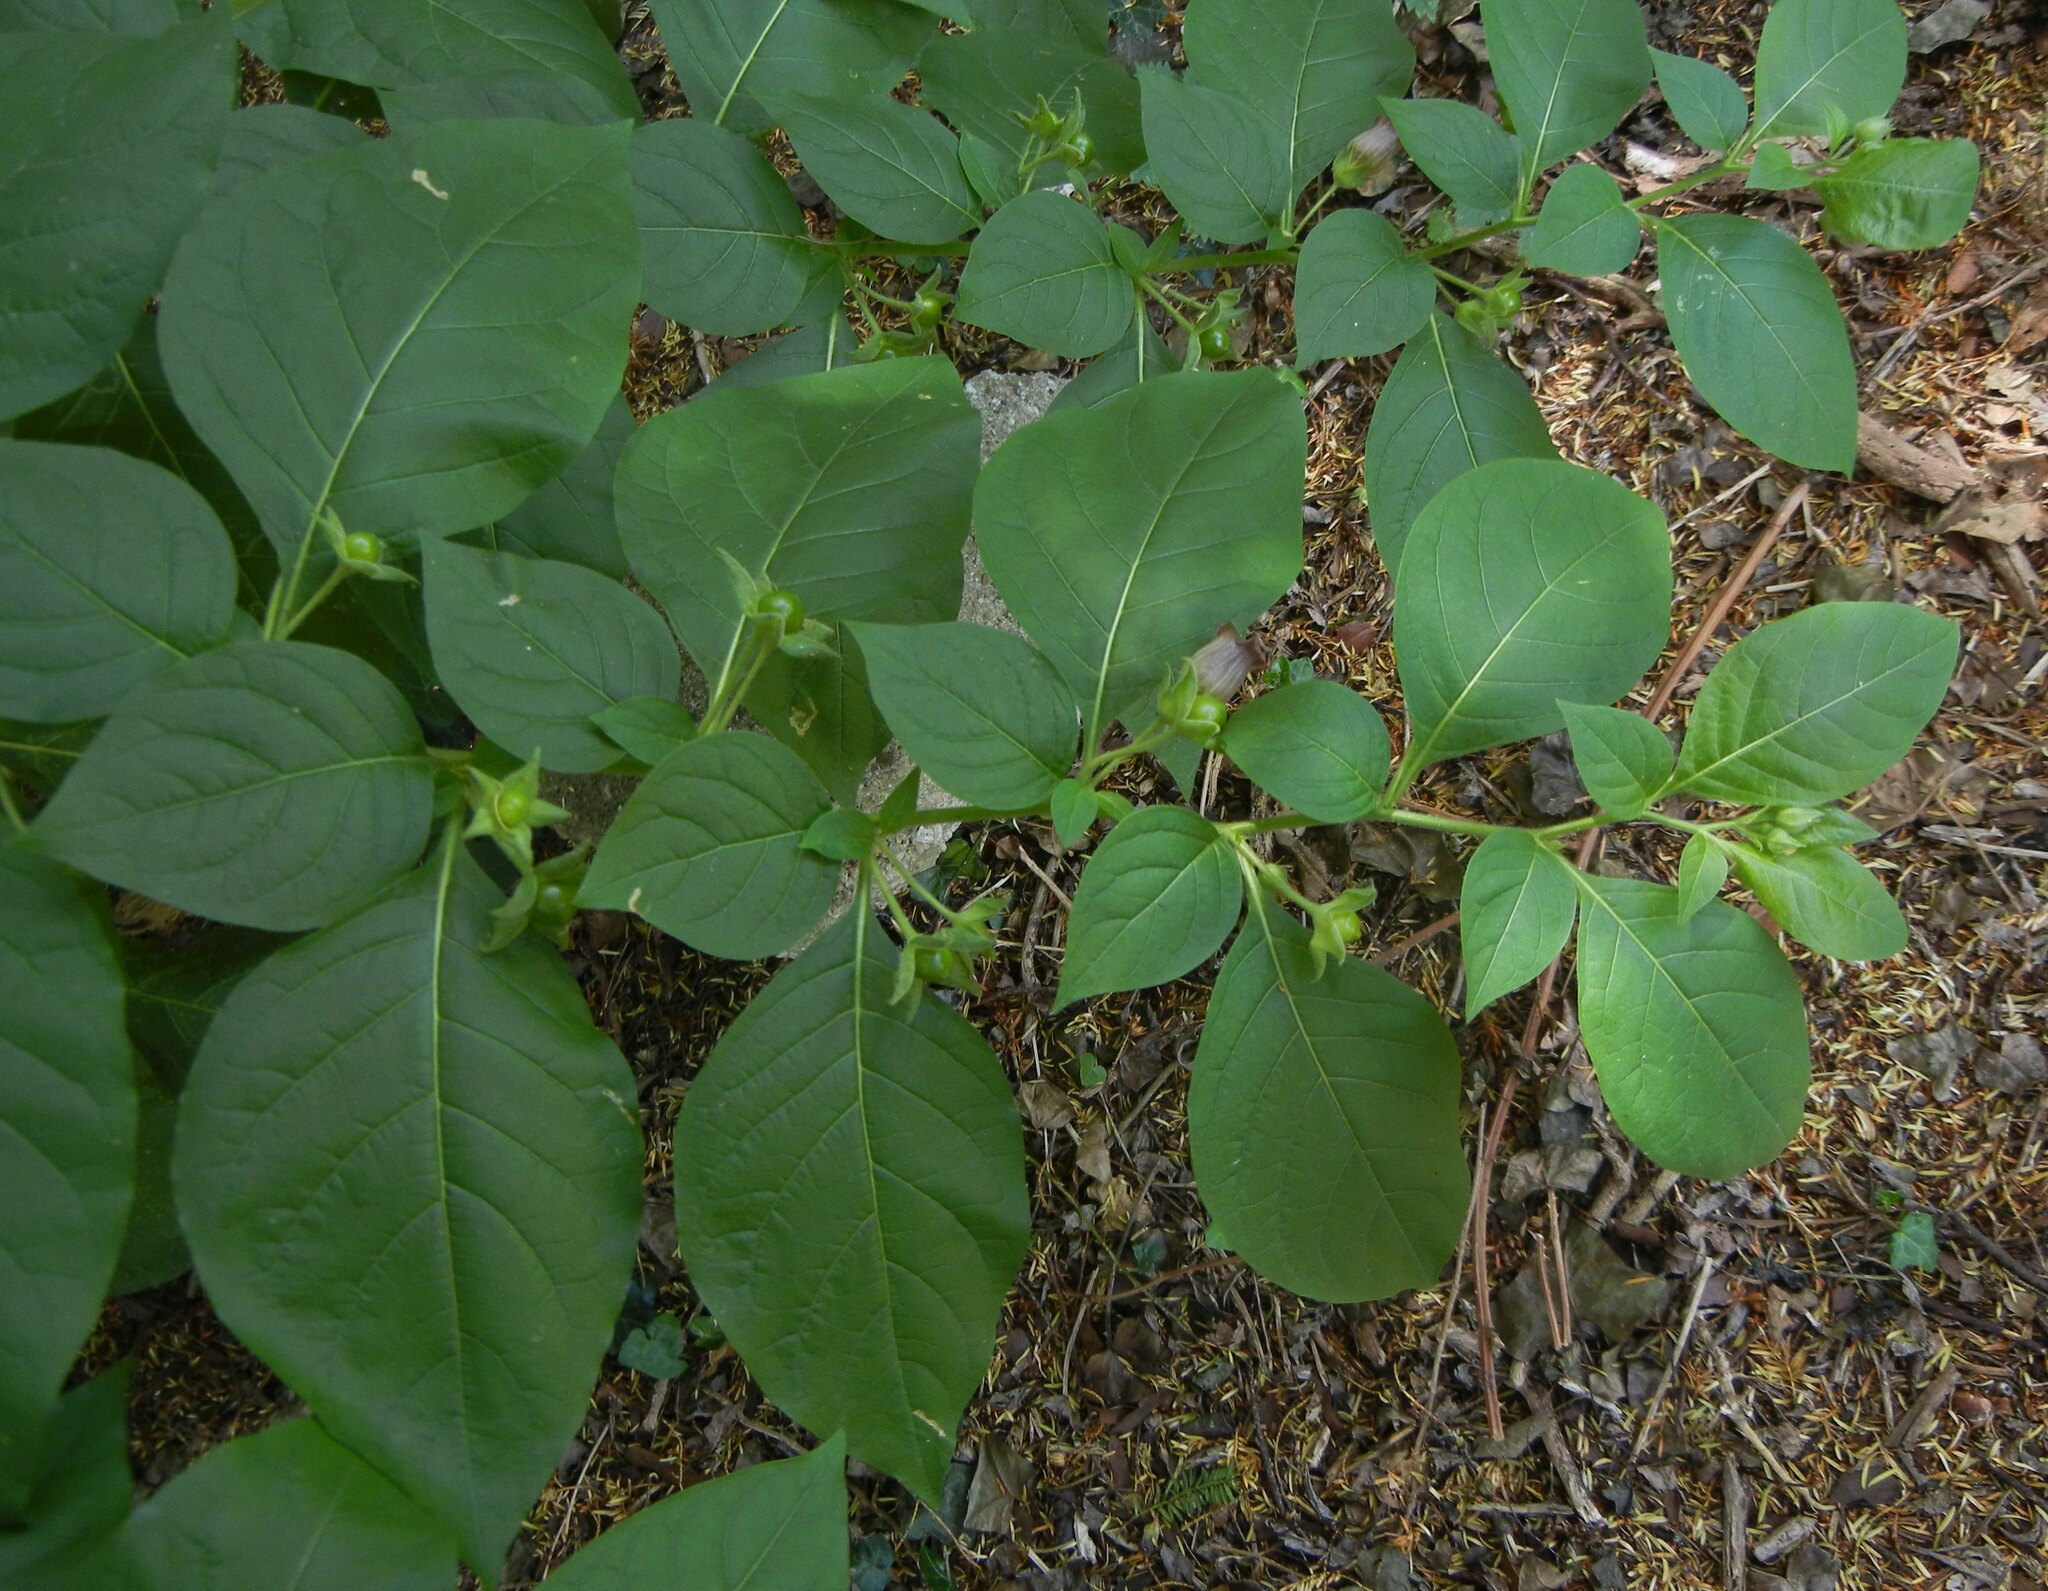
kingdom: Plantae
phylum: Tracheophyta
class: Magnoliopsida
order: Solanales
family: Solanaceae
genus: Atropa
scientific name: Atropa belladonna
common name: Deadly nightshade
